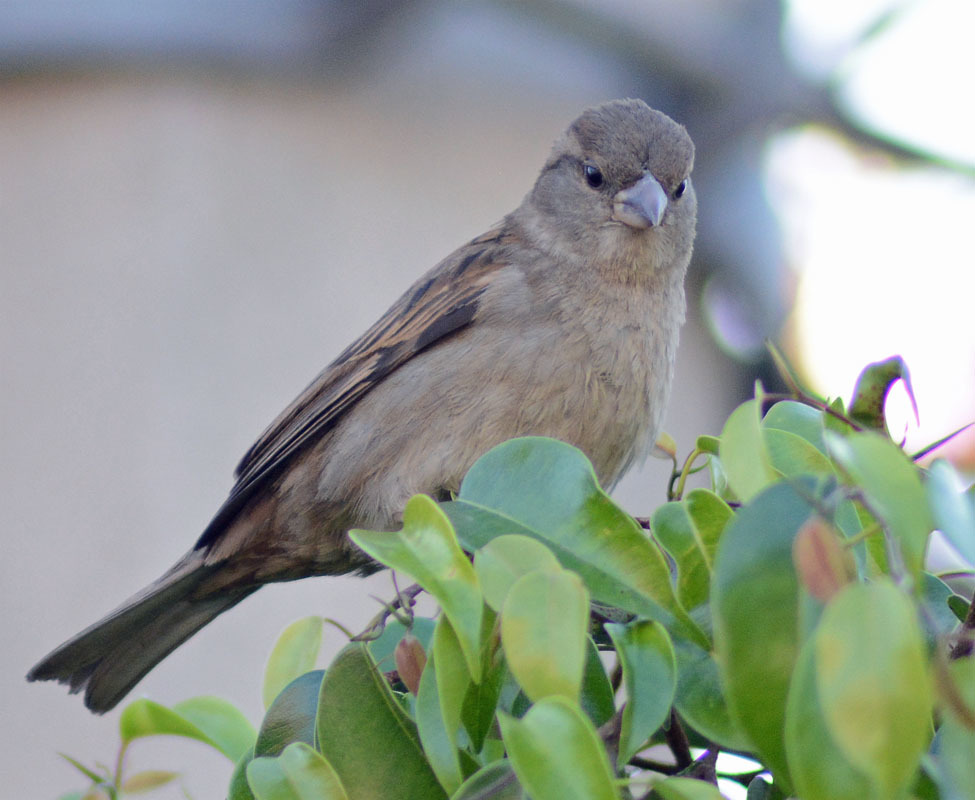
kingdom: Animalia
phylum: Chordata
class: Aves
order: Passeriformes
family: Passeridae
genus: Passer
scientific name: Passer domesticus
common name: House sparrow
